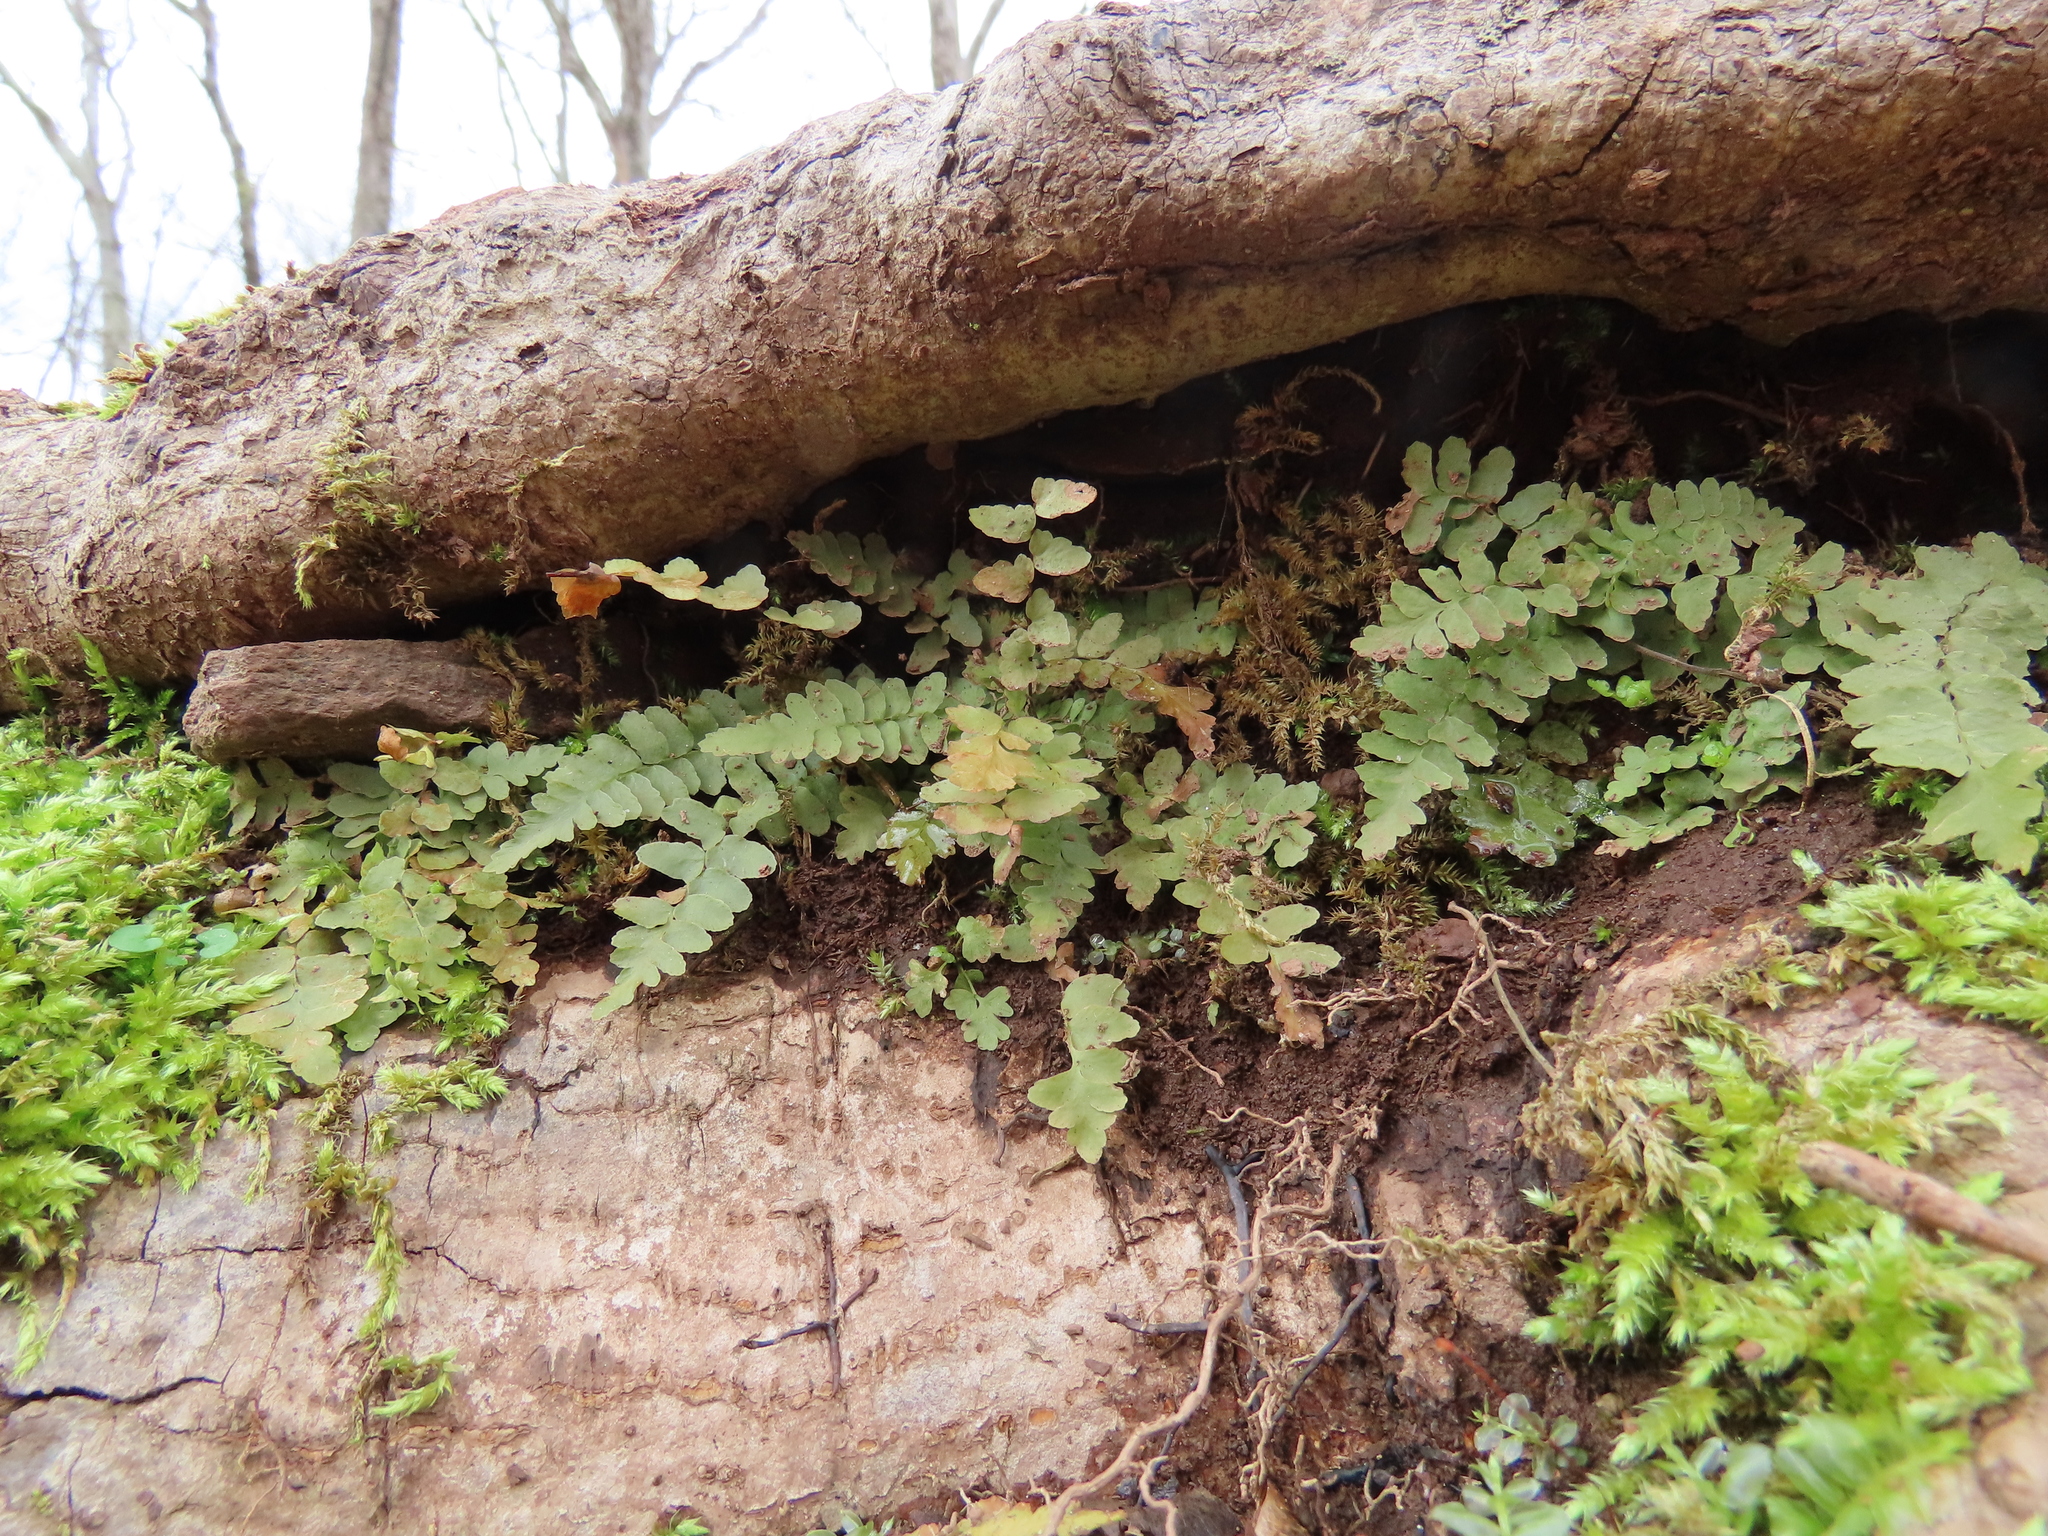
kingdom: Plantae
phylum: Tracheophyta
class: Polypodiopsida
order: Polypodiales
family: Aspleniaceae
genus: Asplenium
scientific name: Asplenium platyneuron
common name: Ebony spleenwort
